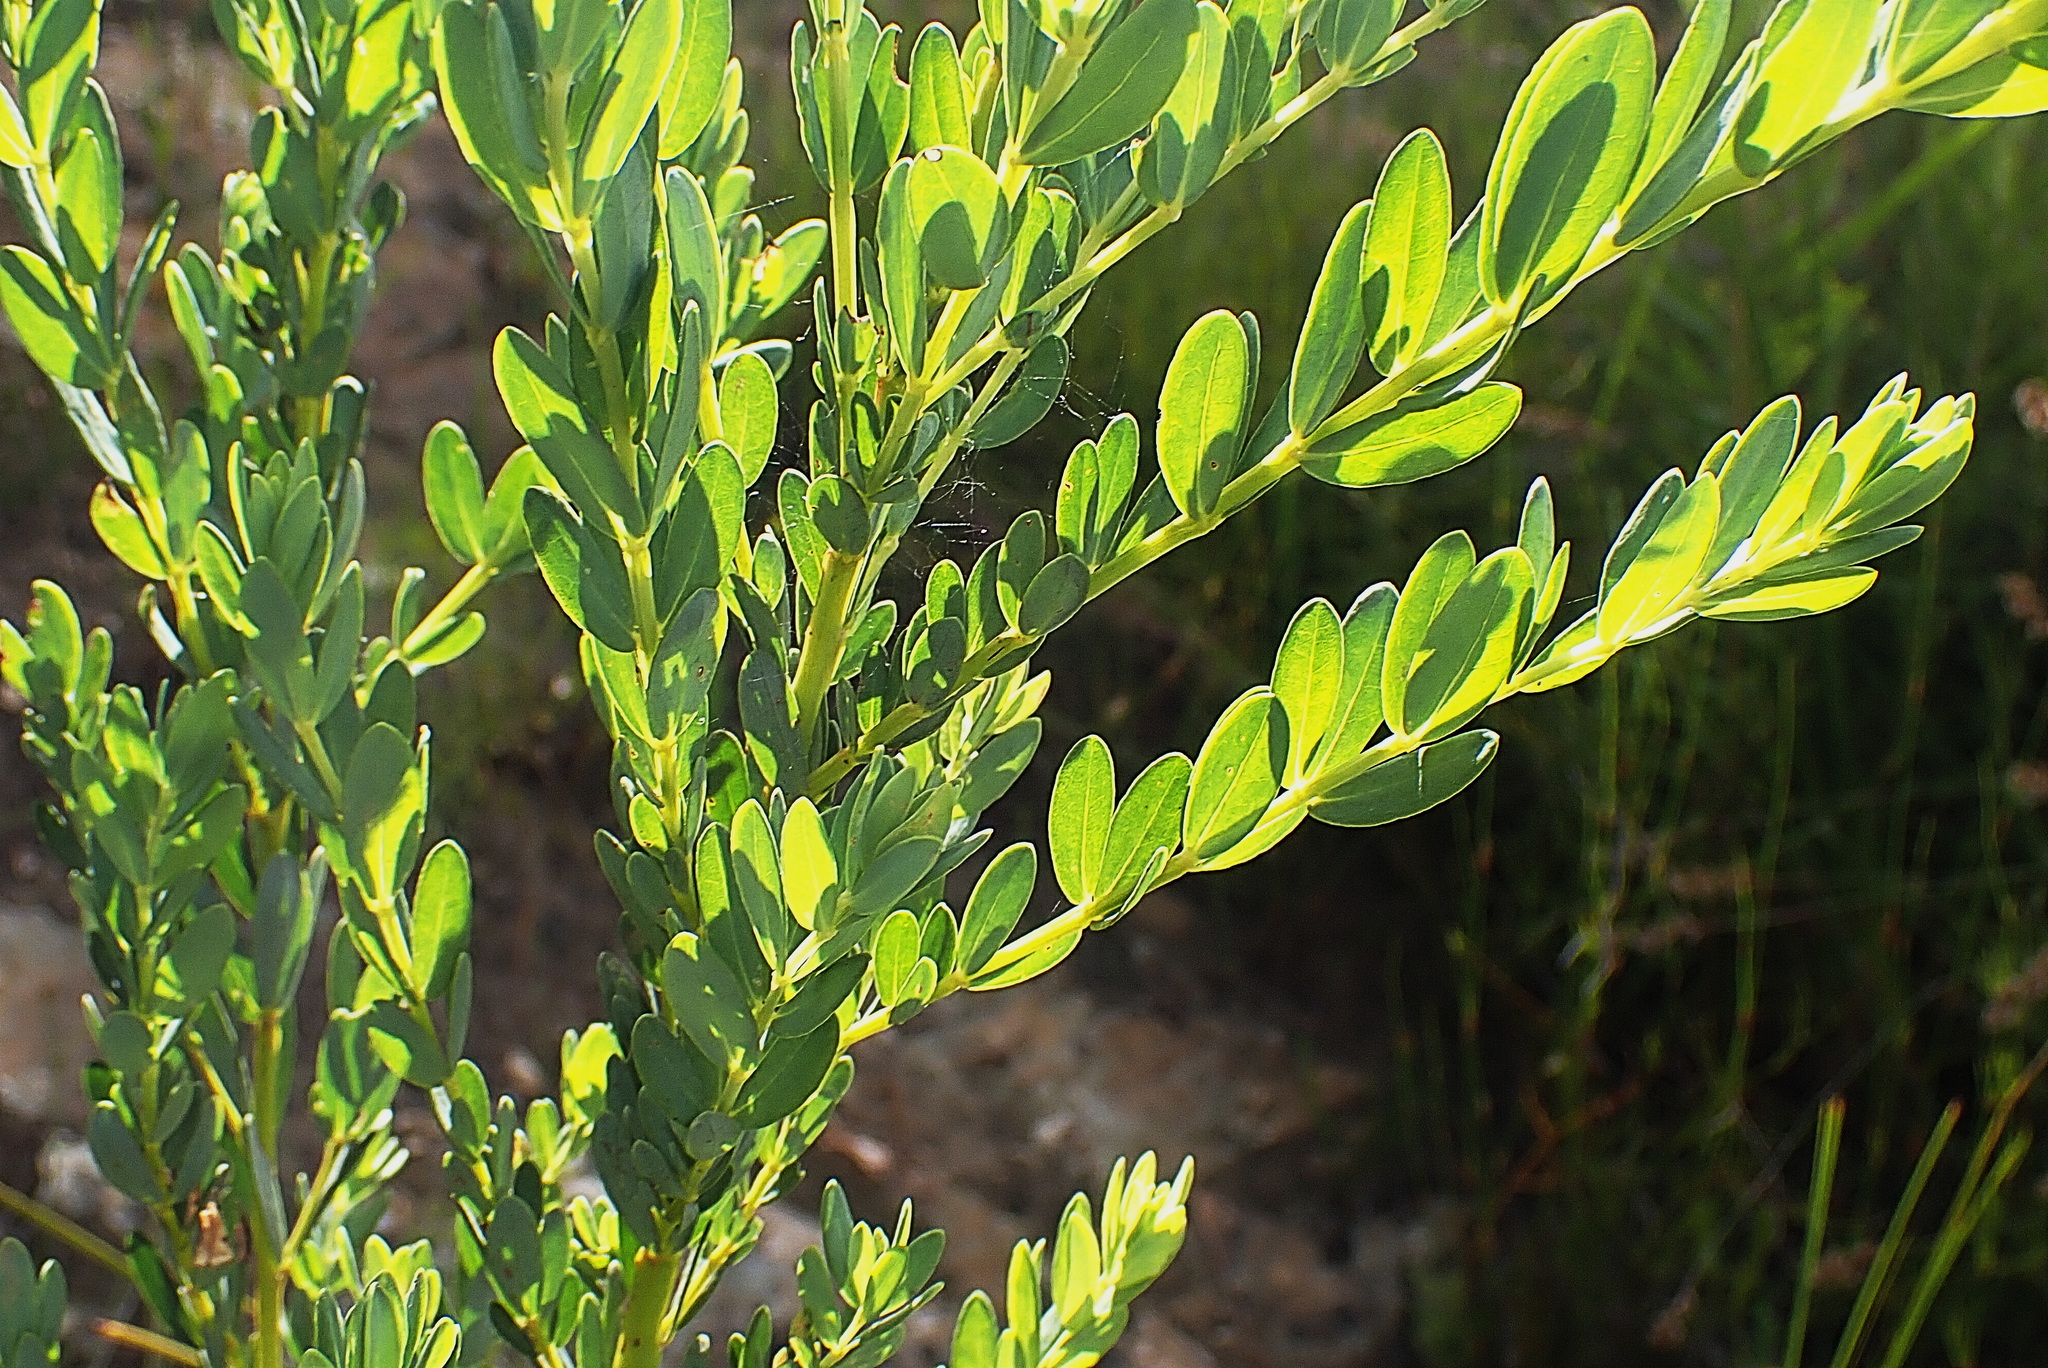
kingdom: Plantae
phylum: Tracheophyta
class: Magnoliopsida
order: Fabales
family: Fabaceae
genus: Cyclopia
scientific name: Cyclopia subternata
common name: Honeybush tea
